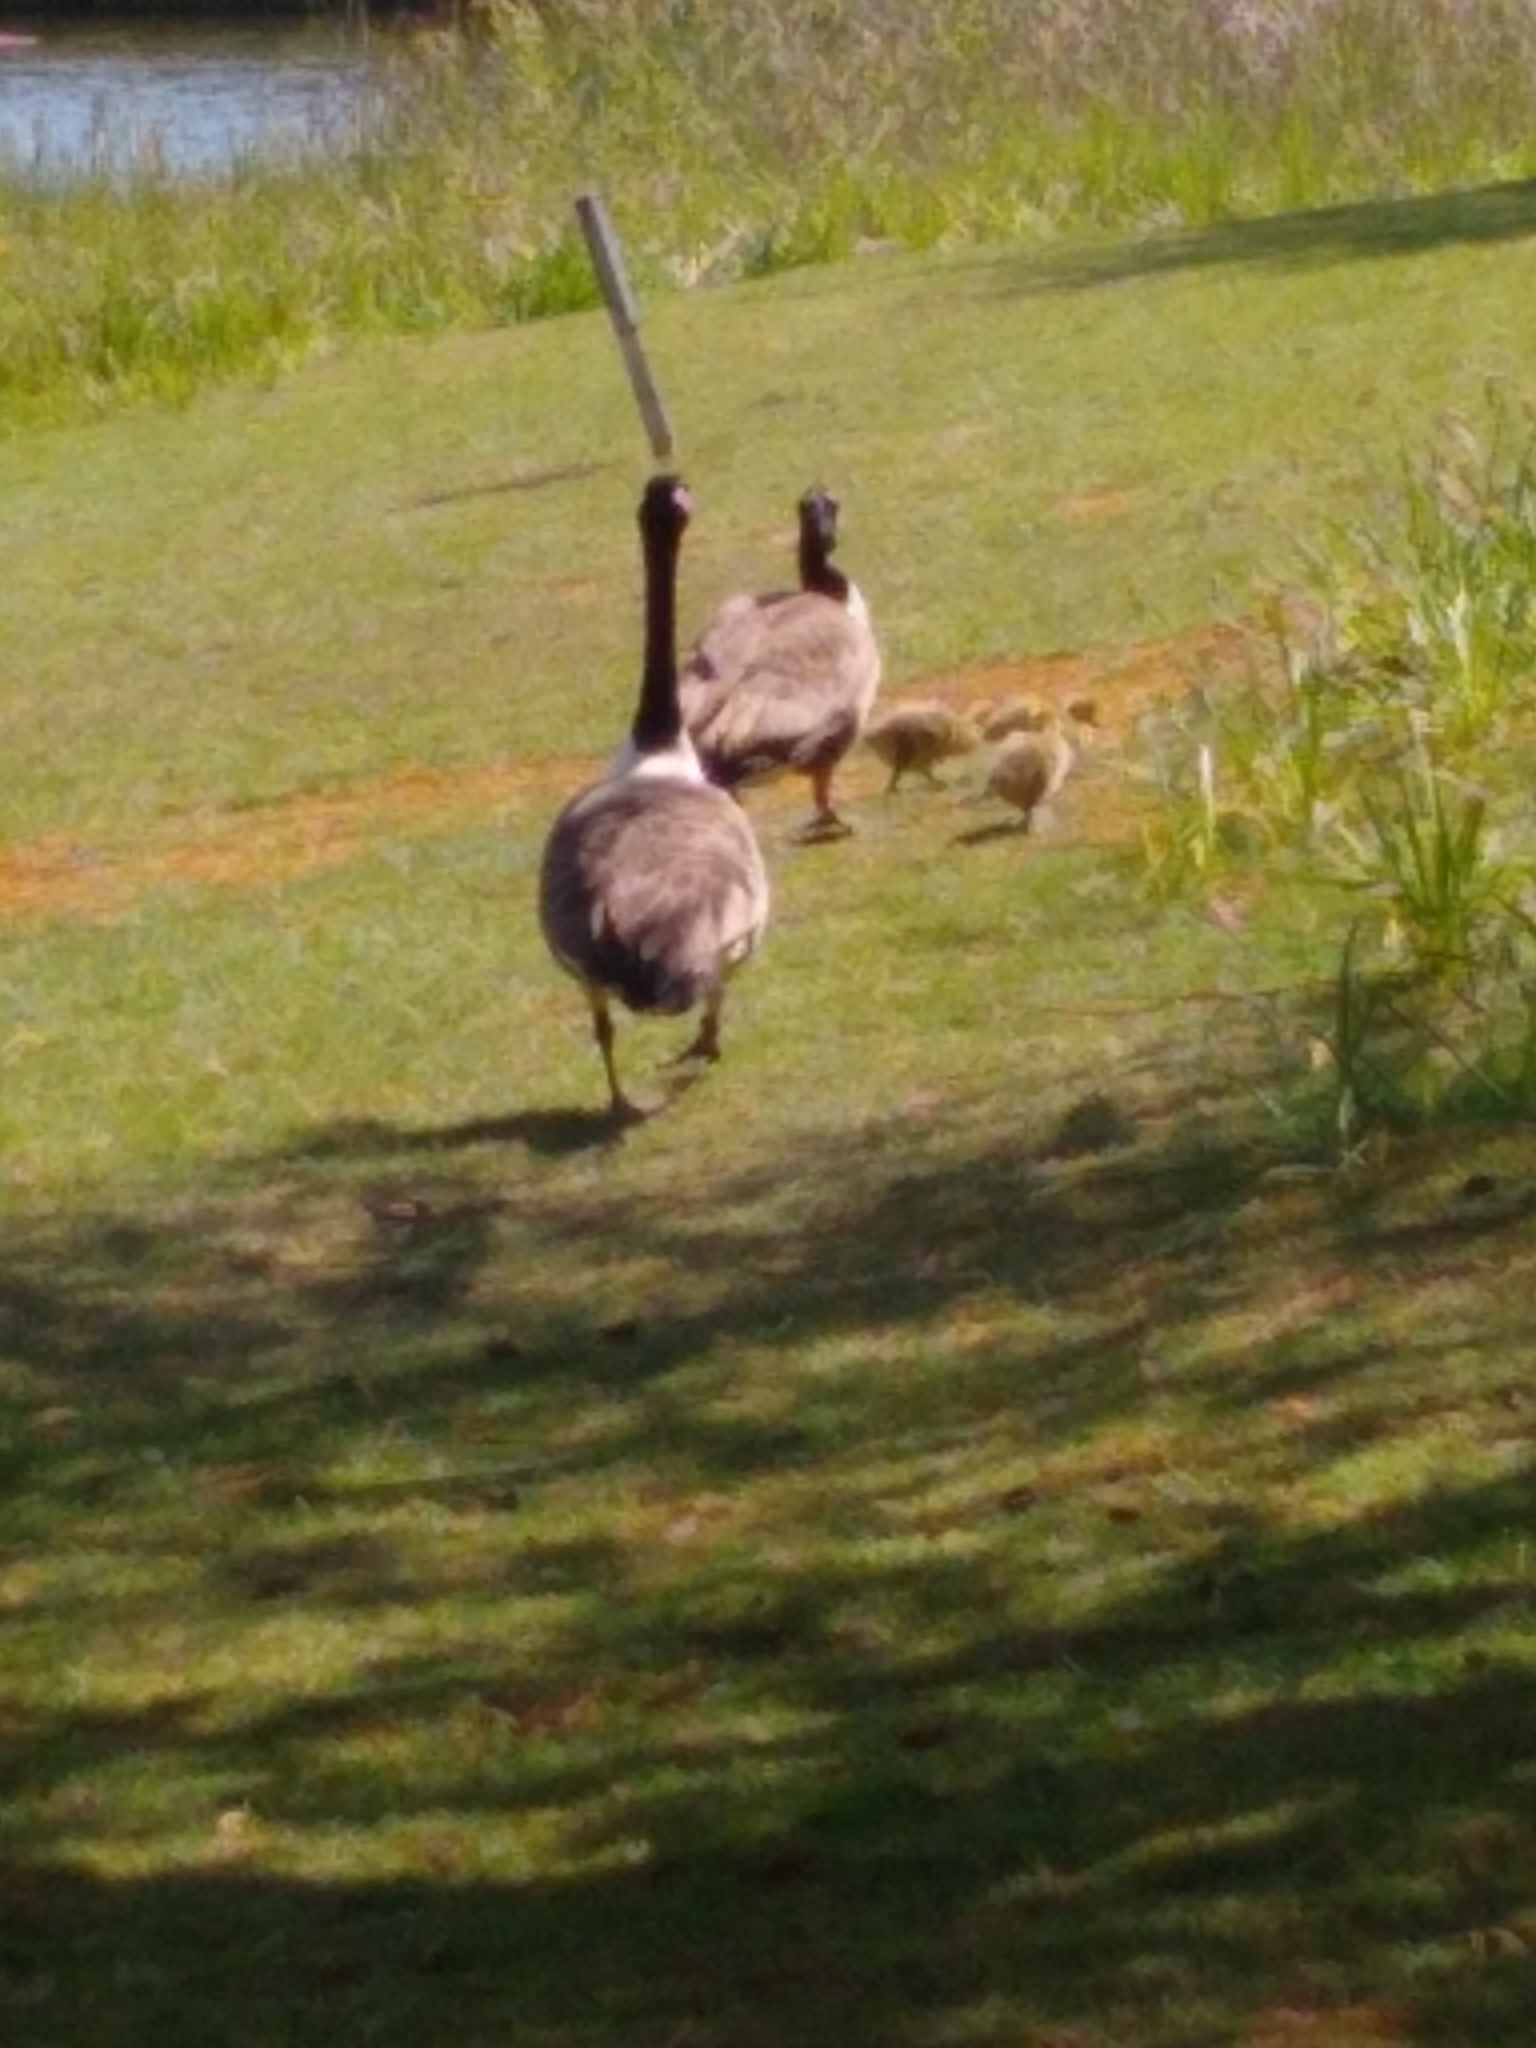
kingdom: Animalia
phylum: Chordata
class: Aves
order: Anseriformes
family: Anatidae
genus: Branta
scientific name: Branta canadensis
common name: Canada goose
